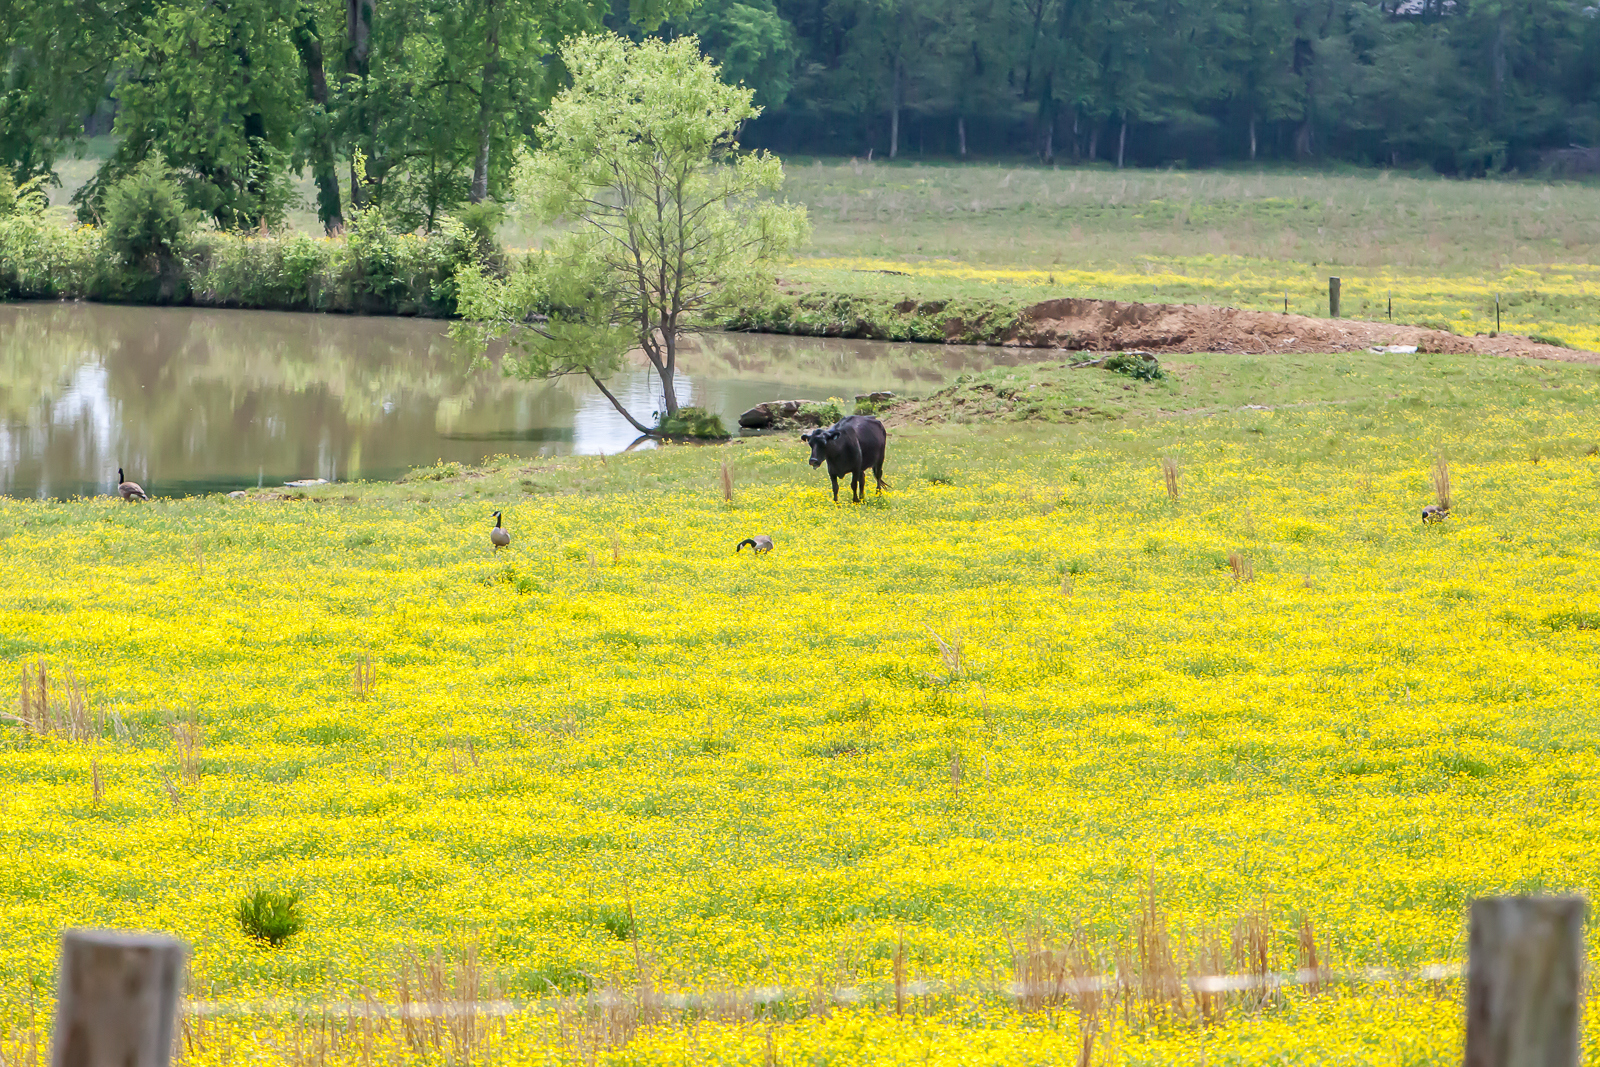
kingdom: Animalia
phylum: Chordata
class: Aves
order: Anseriformes
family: Anatidae
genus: Branta
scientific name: Branta canadensis
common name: Canada goose
